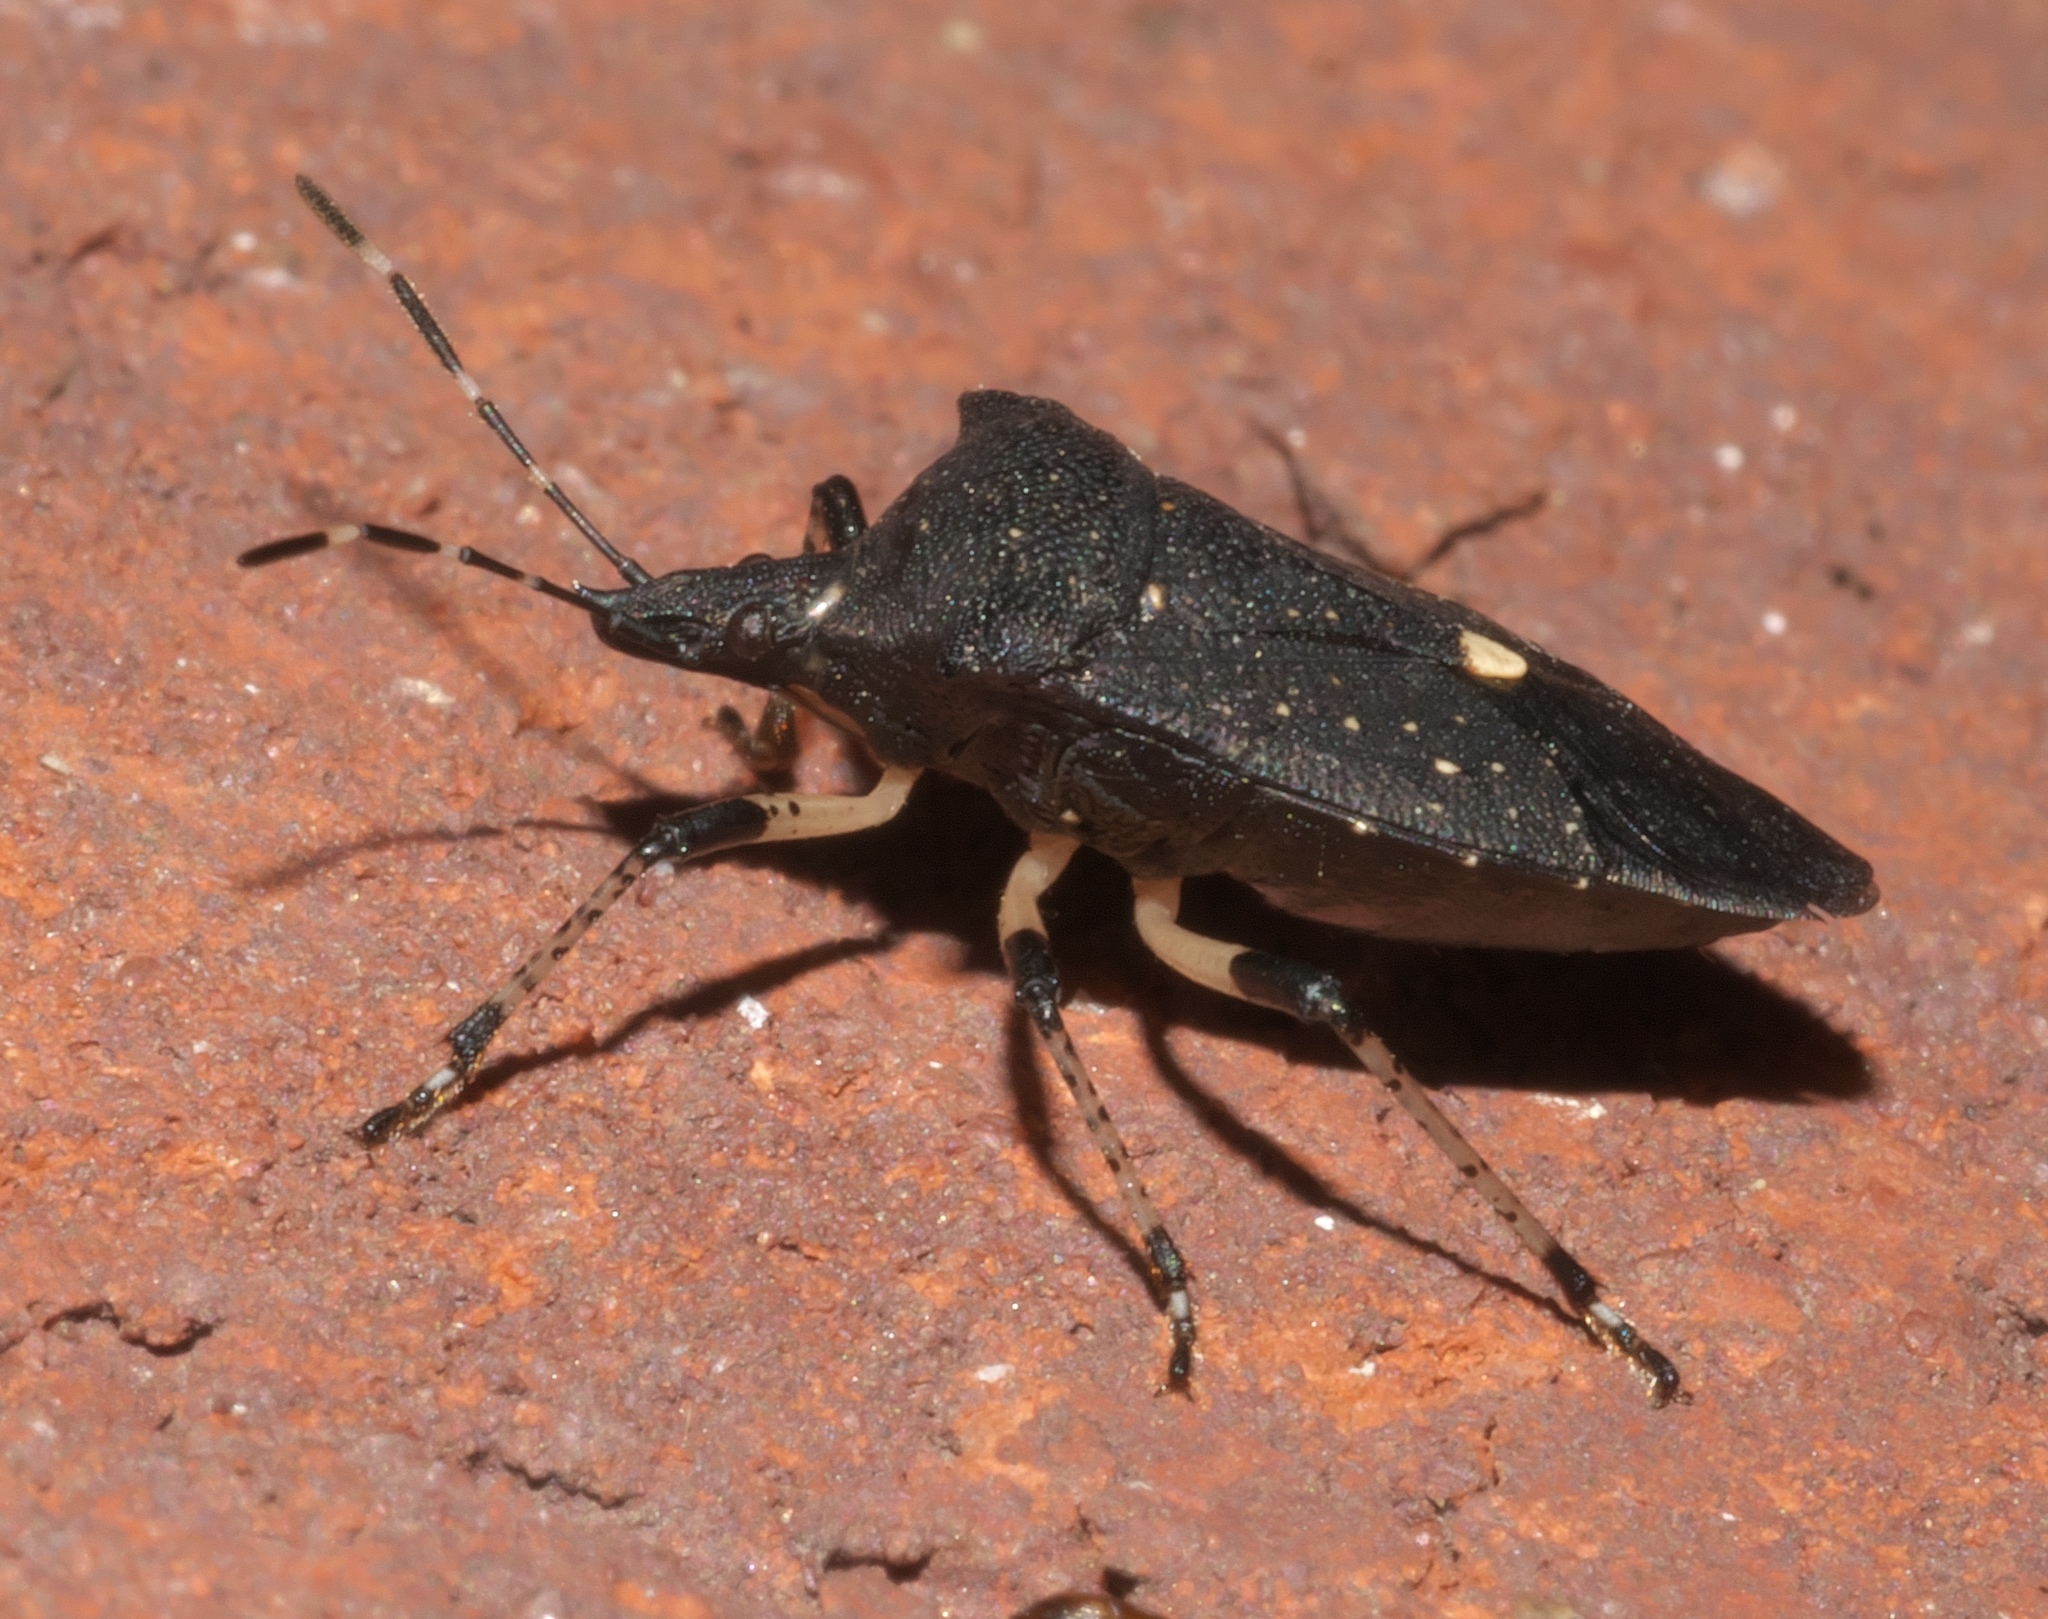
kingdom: Animalia
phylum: Arthropoda
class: Insecta
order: Hemiptera
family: Pentatomidae
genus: Proxys
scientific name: Proxys punctulatus
